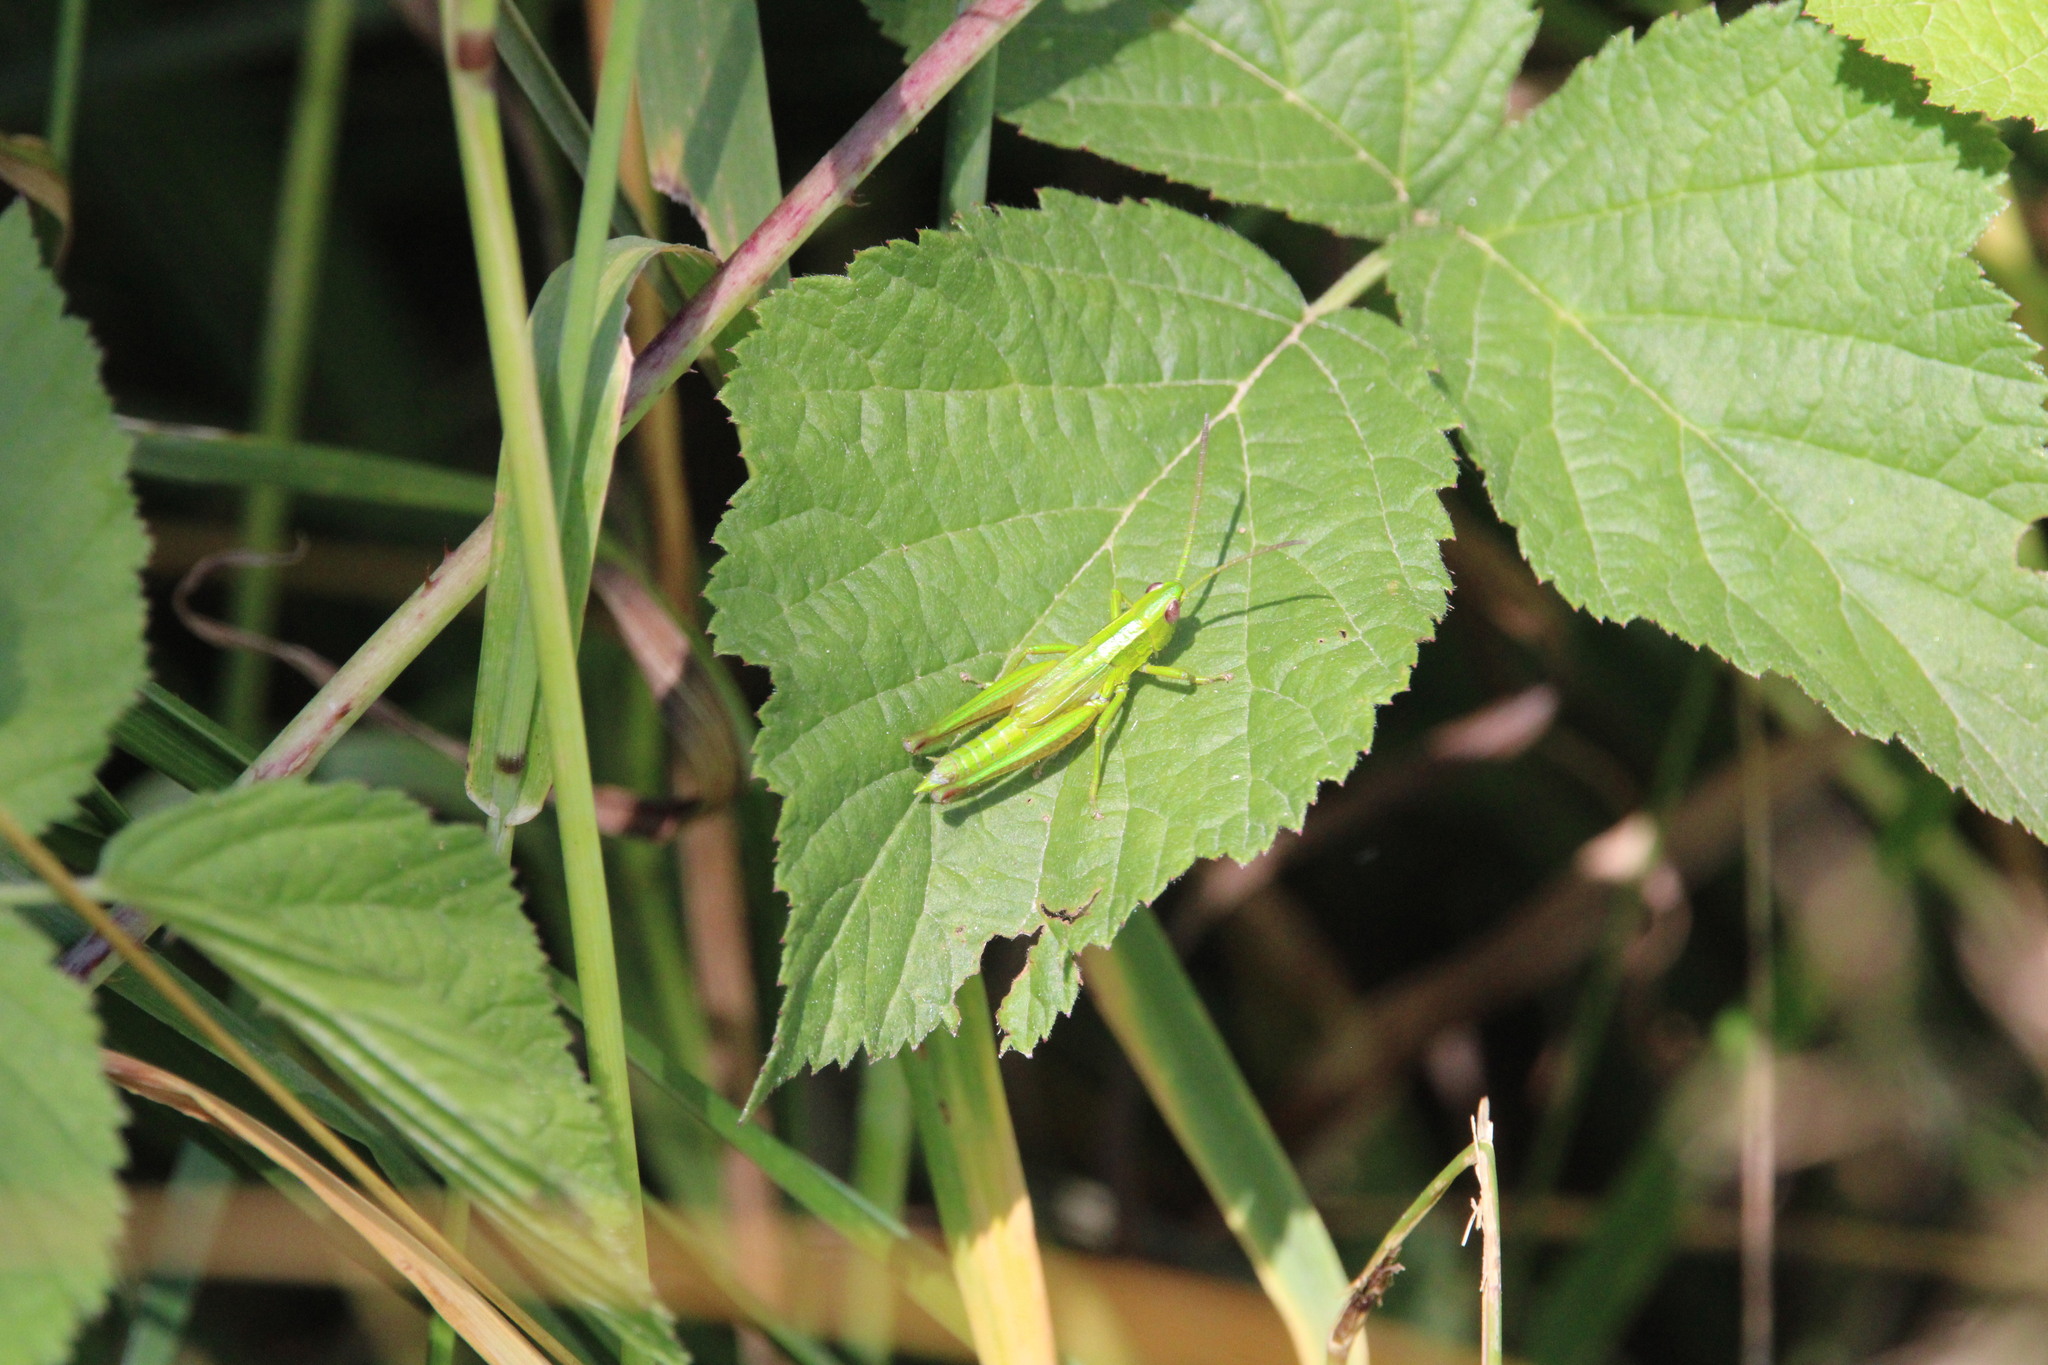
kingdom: Animalia
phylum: Arthropoda
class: Insecta
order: Orthoptera
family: Acrididae
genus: Euthystira
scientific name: Euthystira brachyptera
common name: Small gold grasshopper
